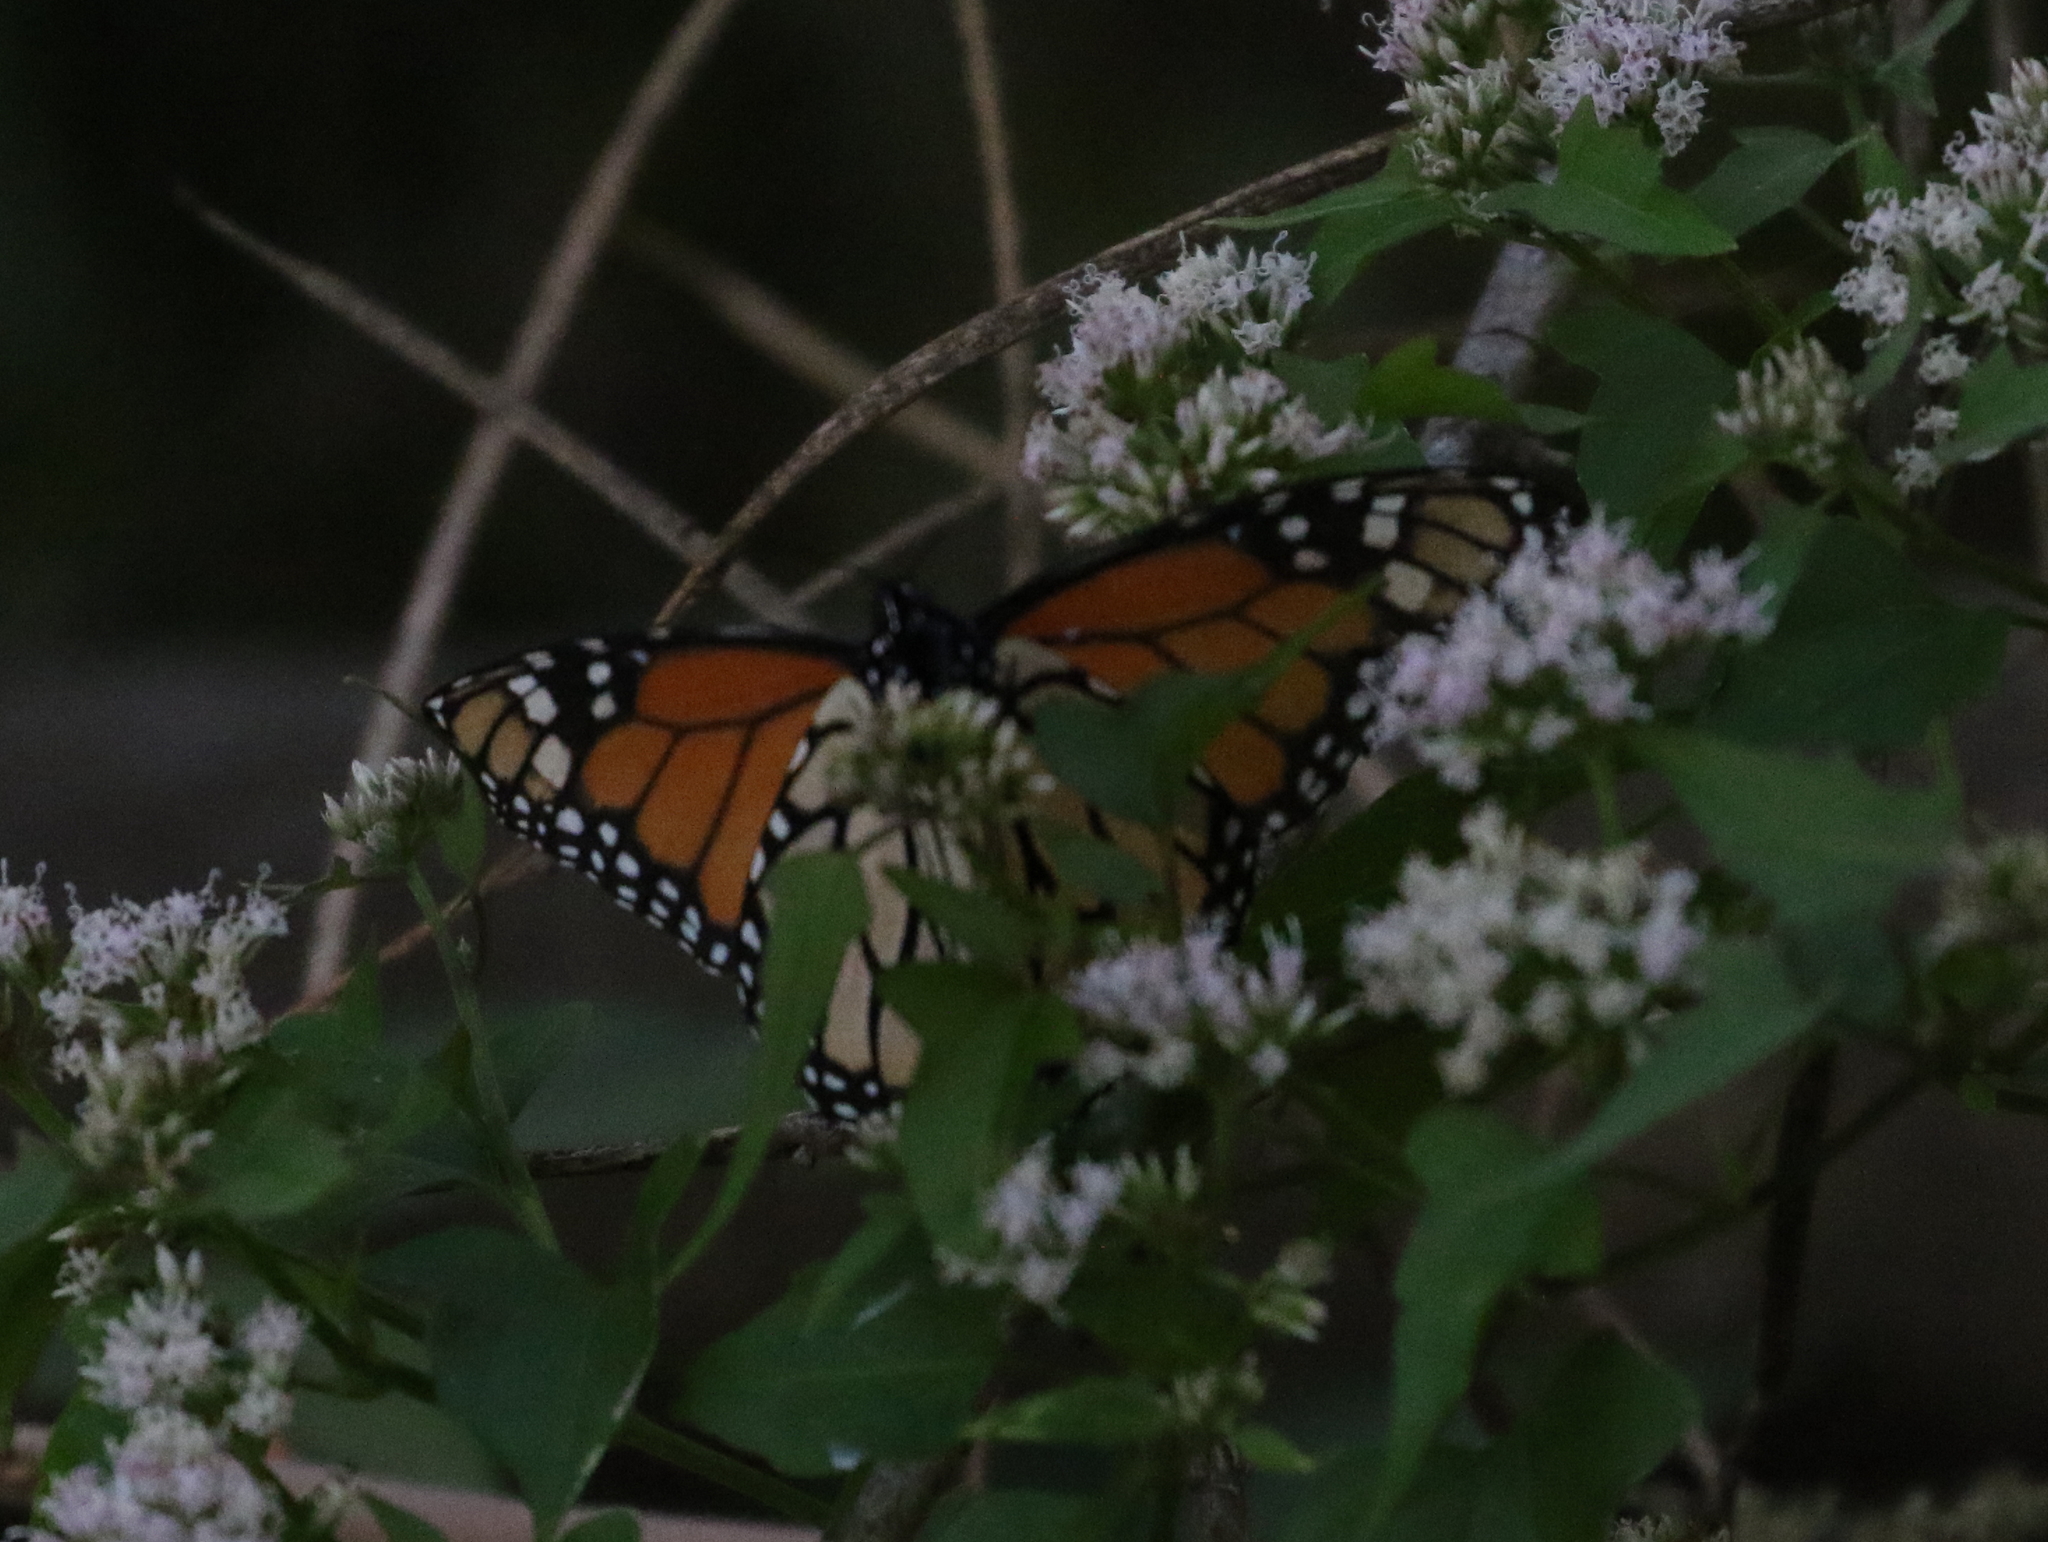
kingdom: Animalia
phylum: Arthropoda
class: Insecta
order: Lepidoptera
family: Nymphalidae
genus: Danaus
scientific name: Danaus plexippus
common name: Monarch
